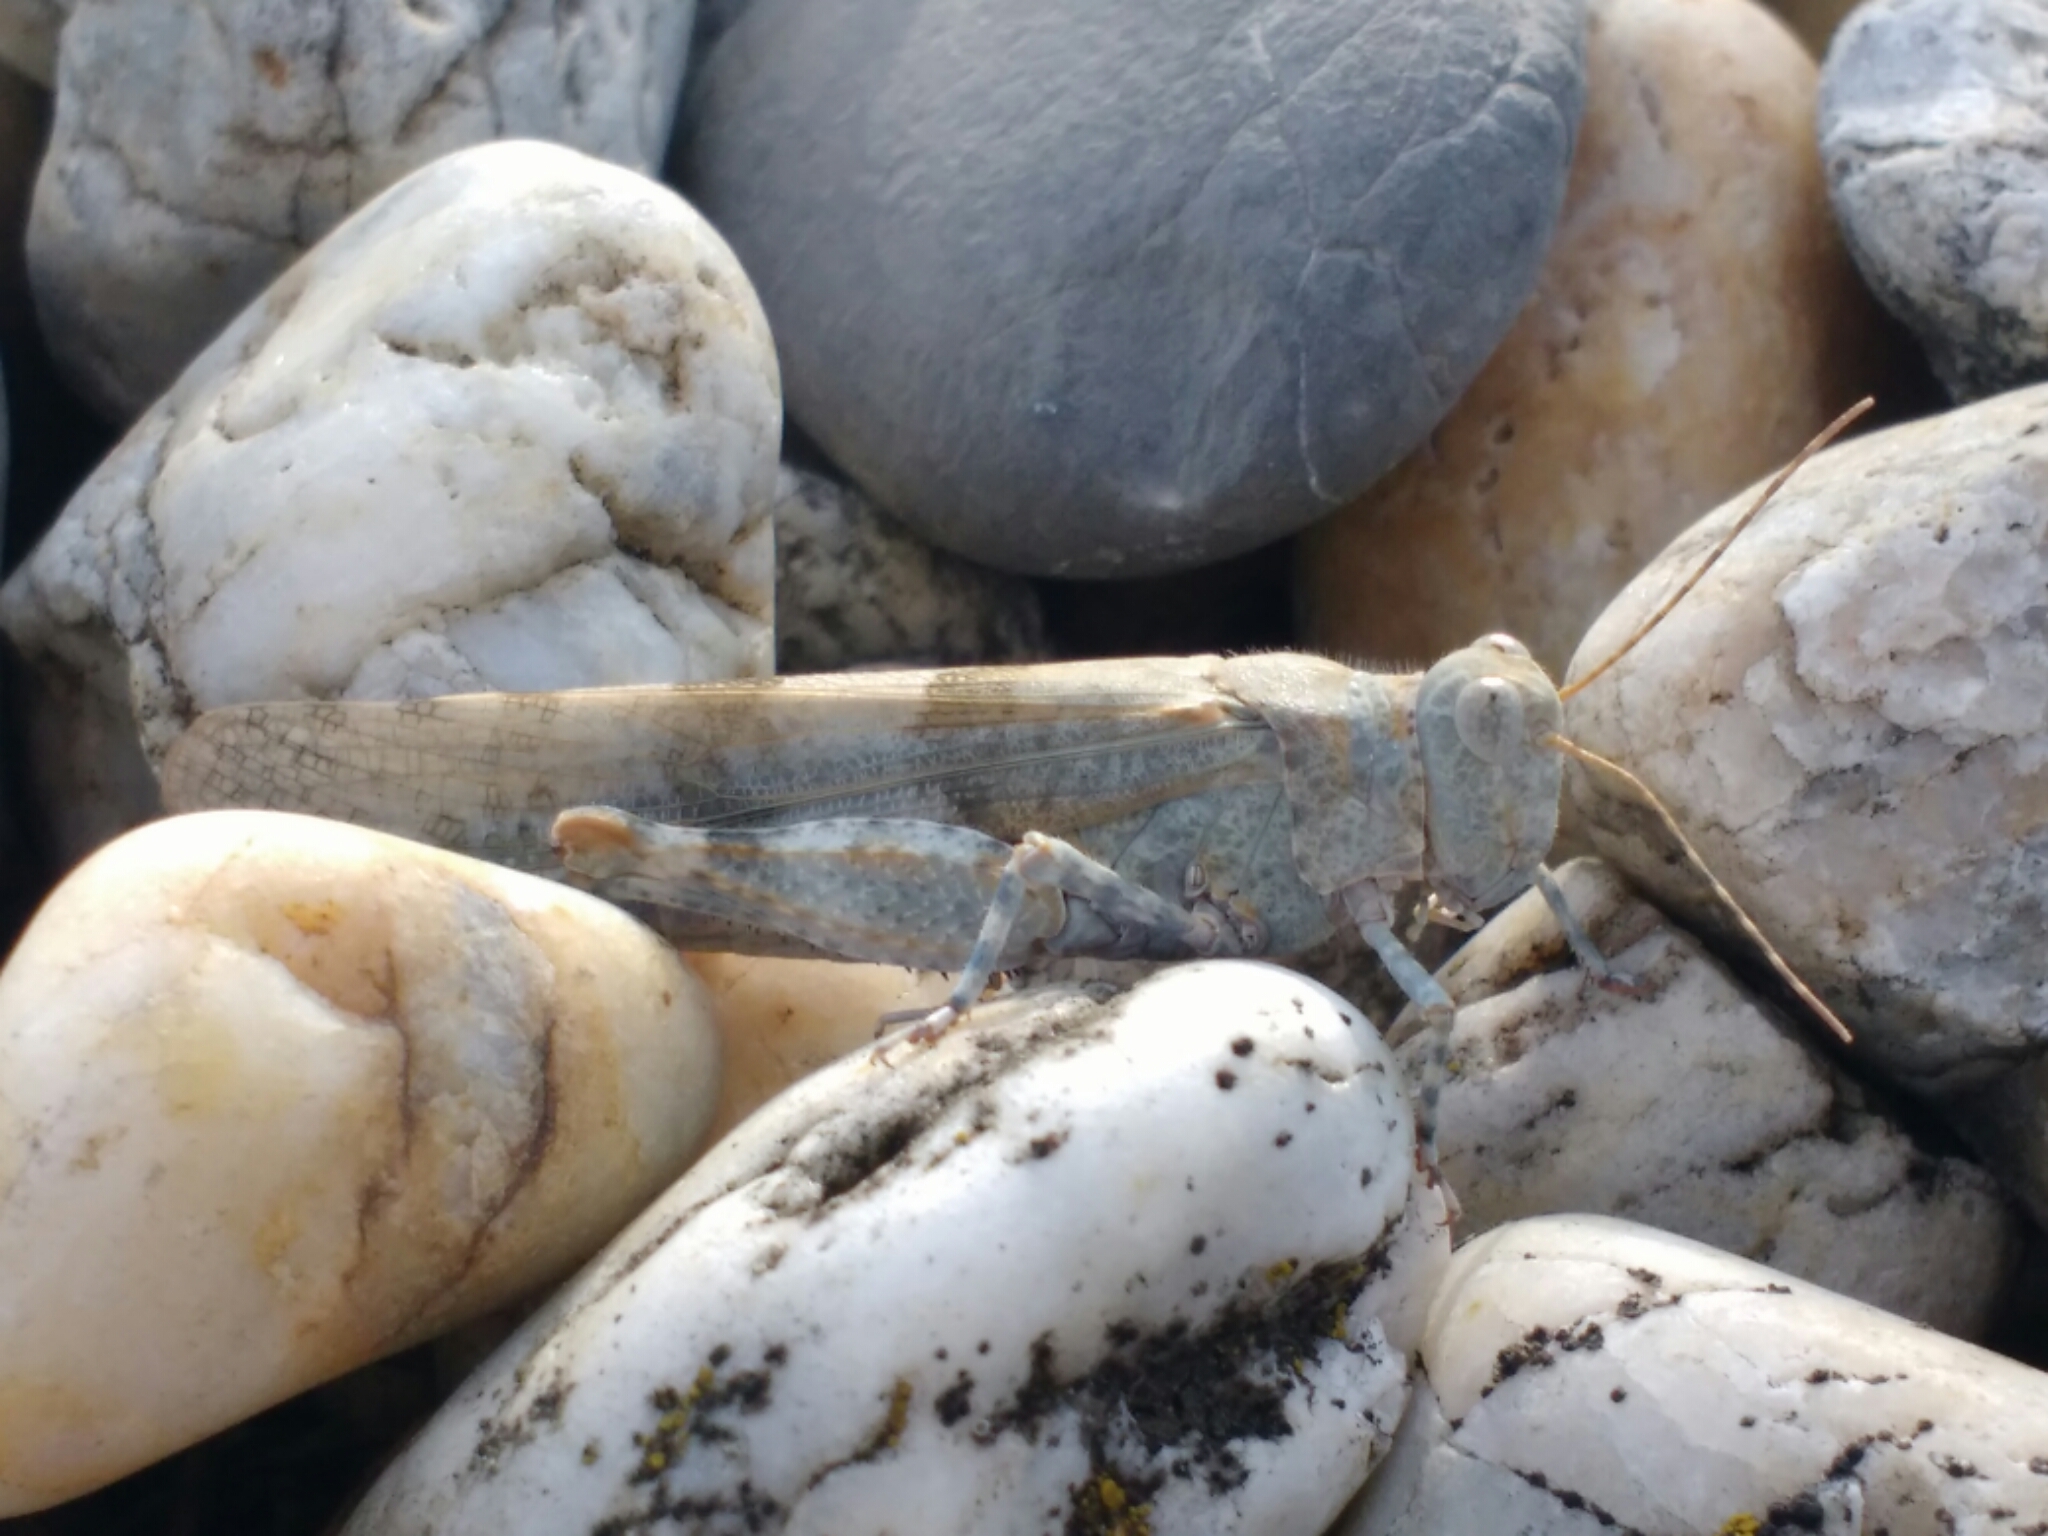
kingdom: Animalia
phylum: Arthropoda
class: Insecta
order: Orthoptera
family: Acrididae
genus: Sphingonotus
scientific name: Sphingonotus caerulans
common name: Blue-winged locust
